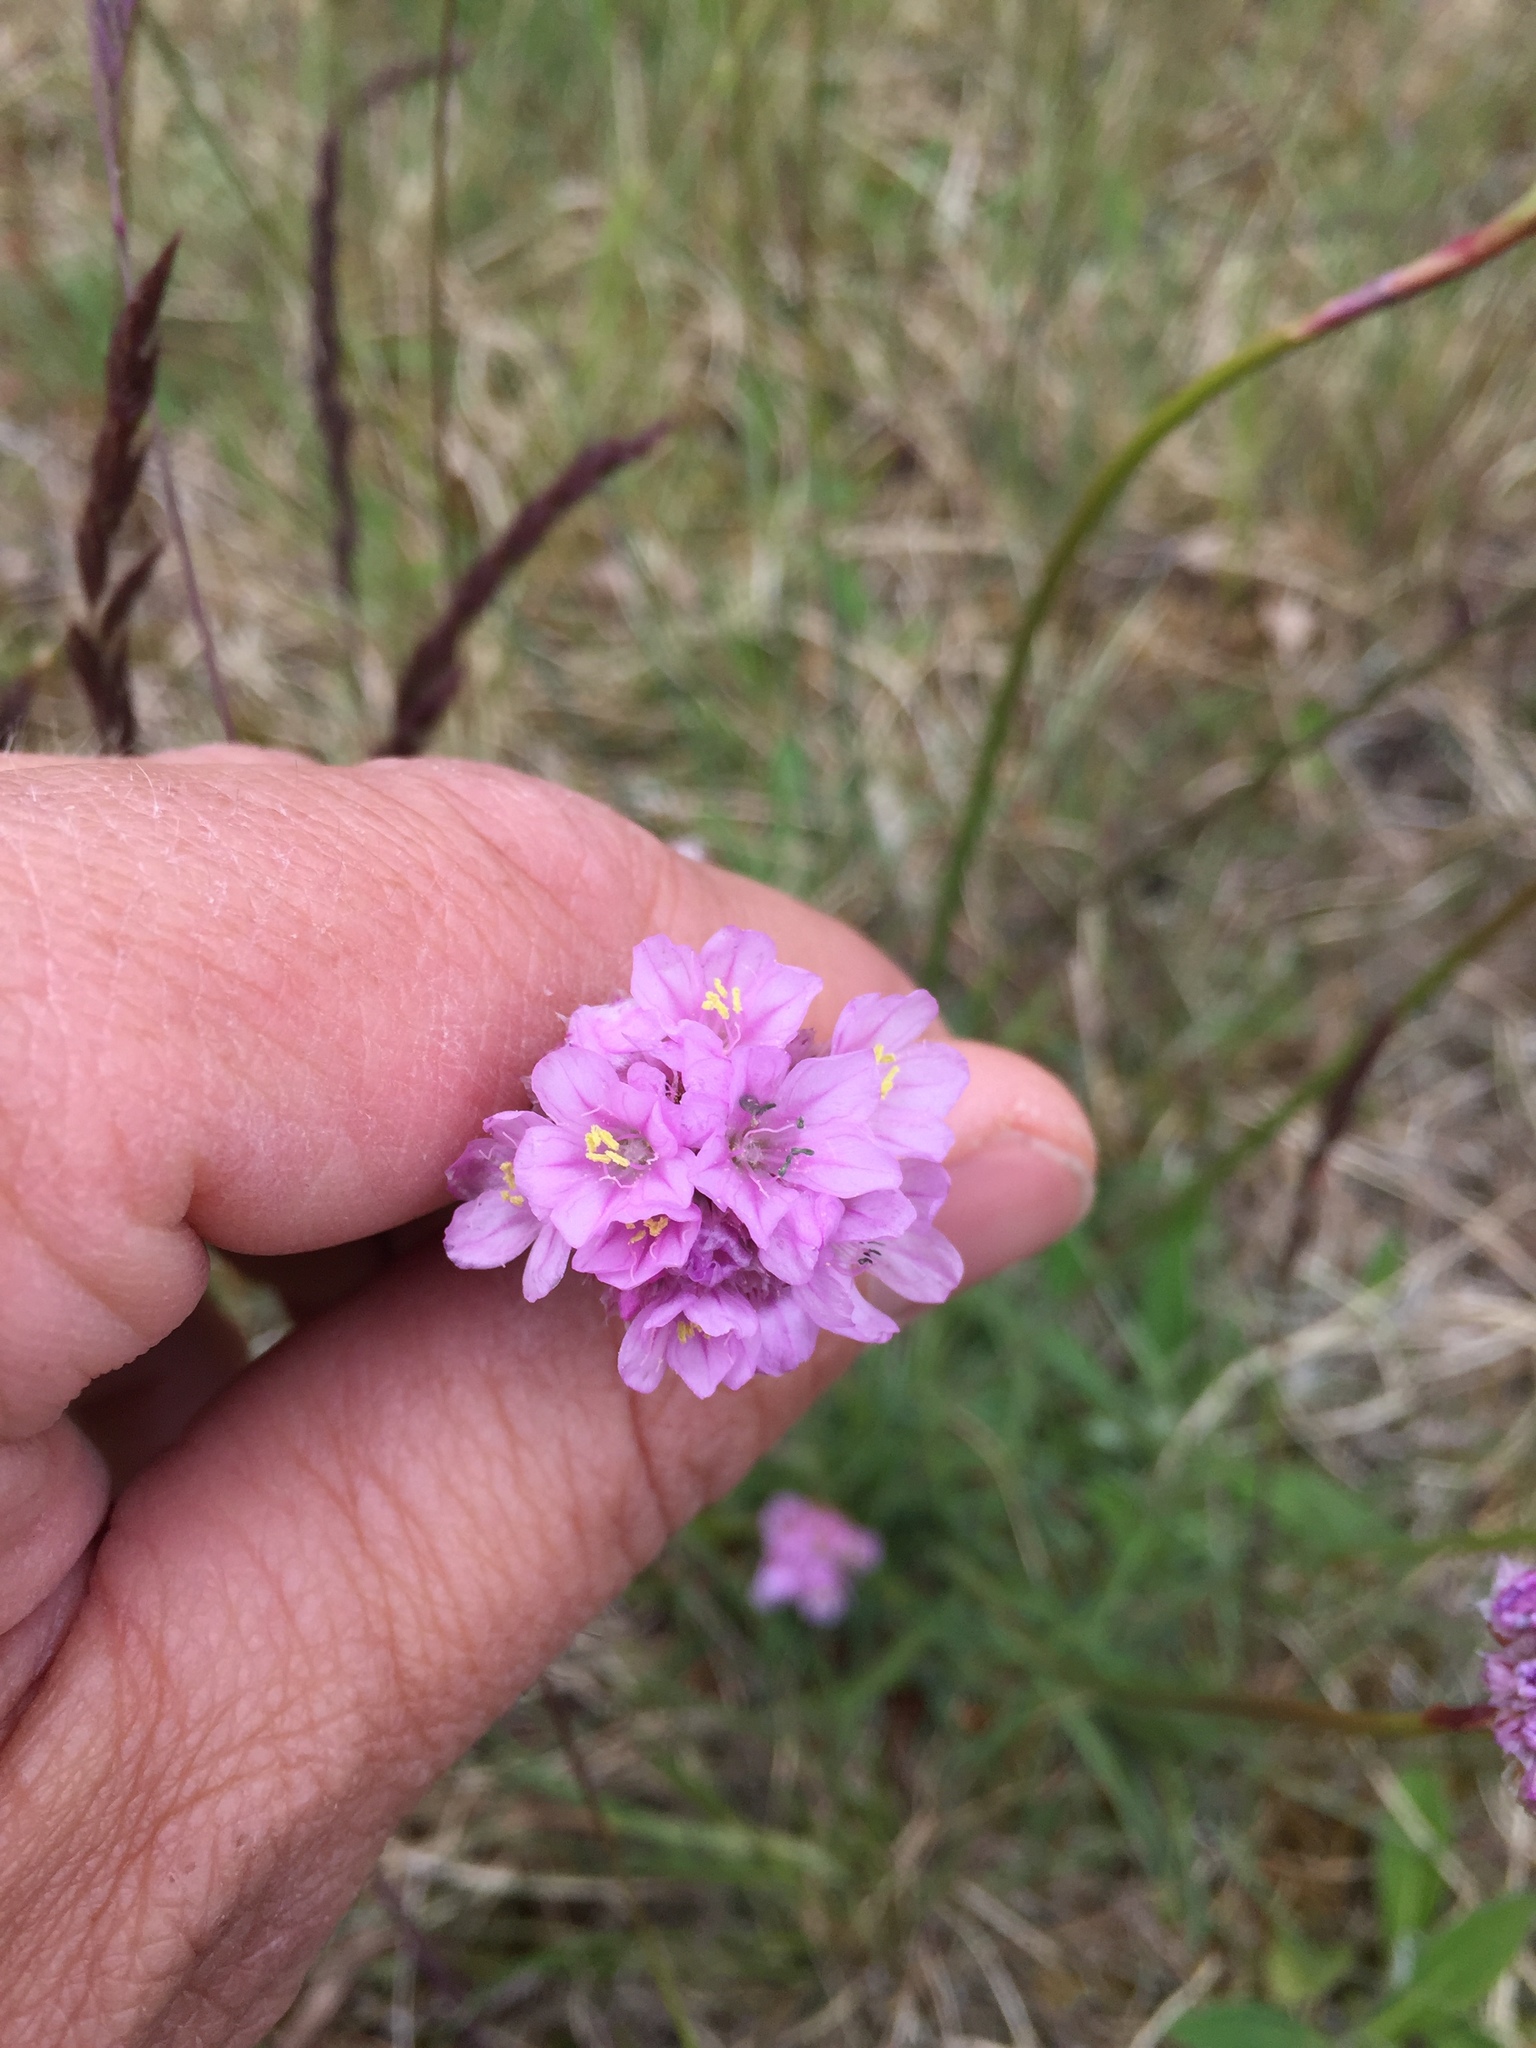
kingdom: Plantae
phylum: Tracheophyta
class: Magnoliopsida
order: Caryophyllales
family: Plumbaginaceae
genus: Armeria
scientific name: Armeria maritima
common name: Thrift
